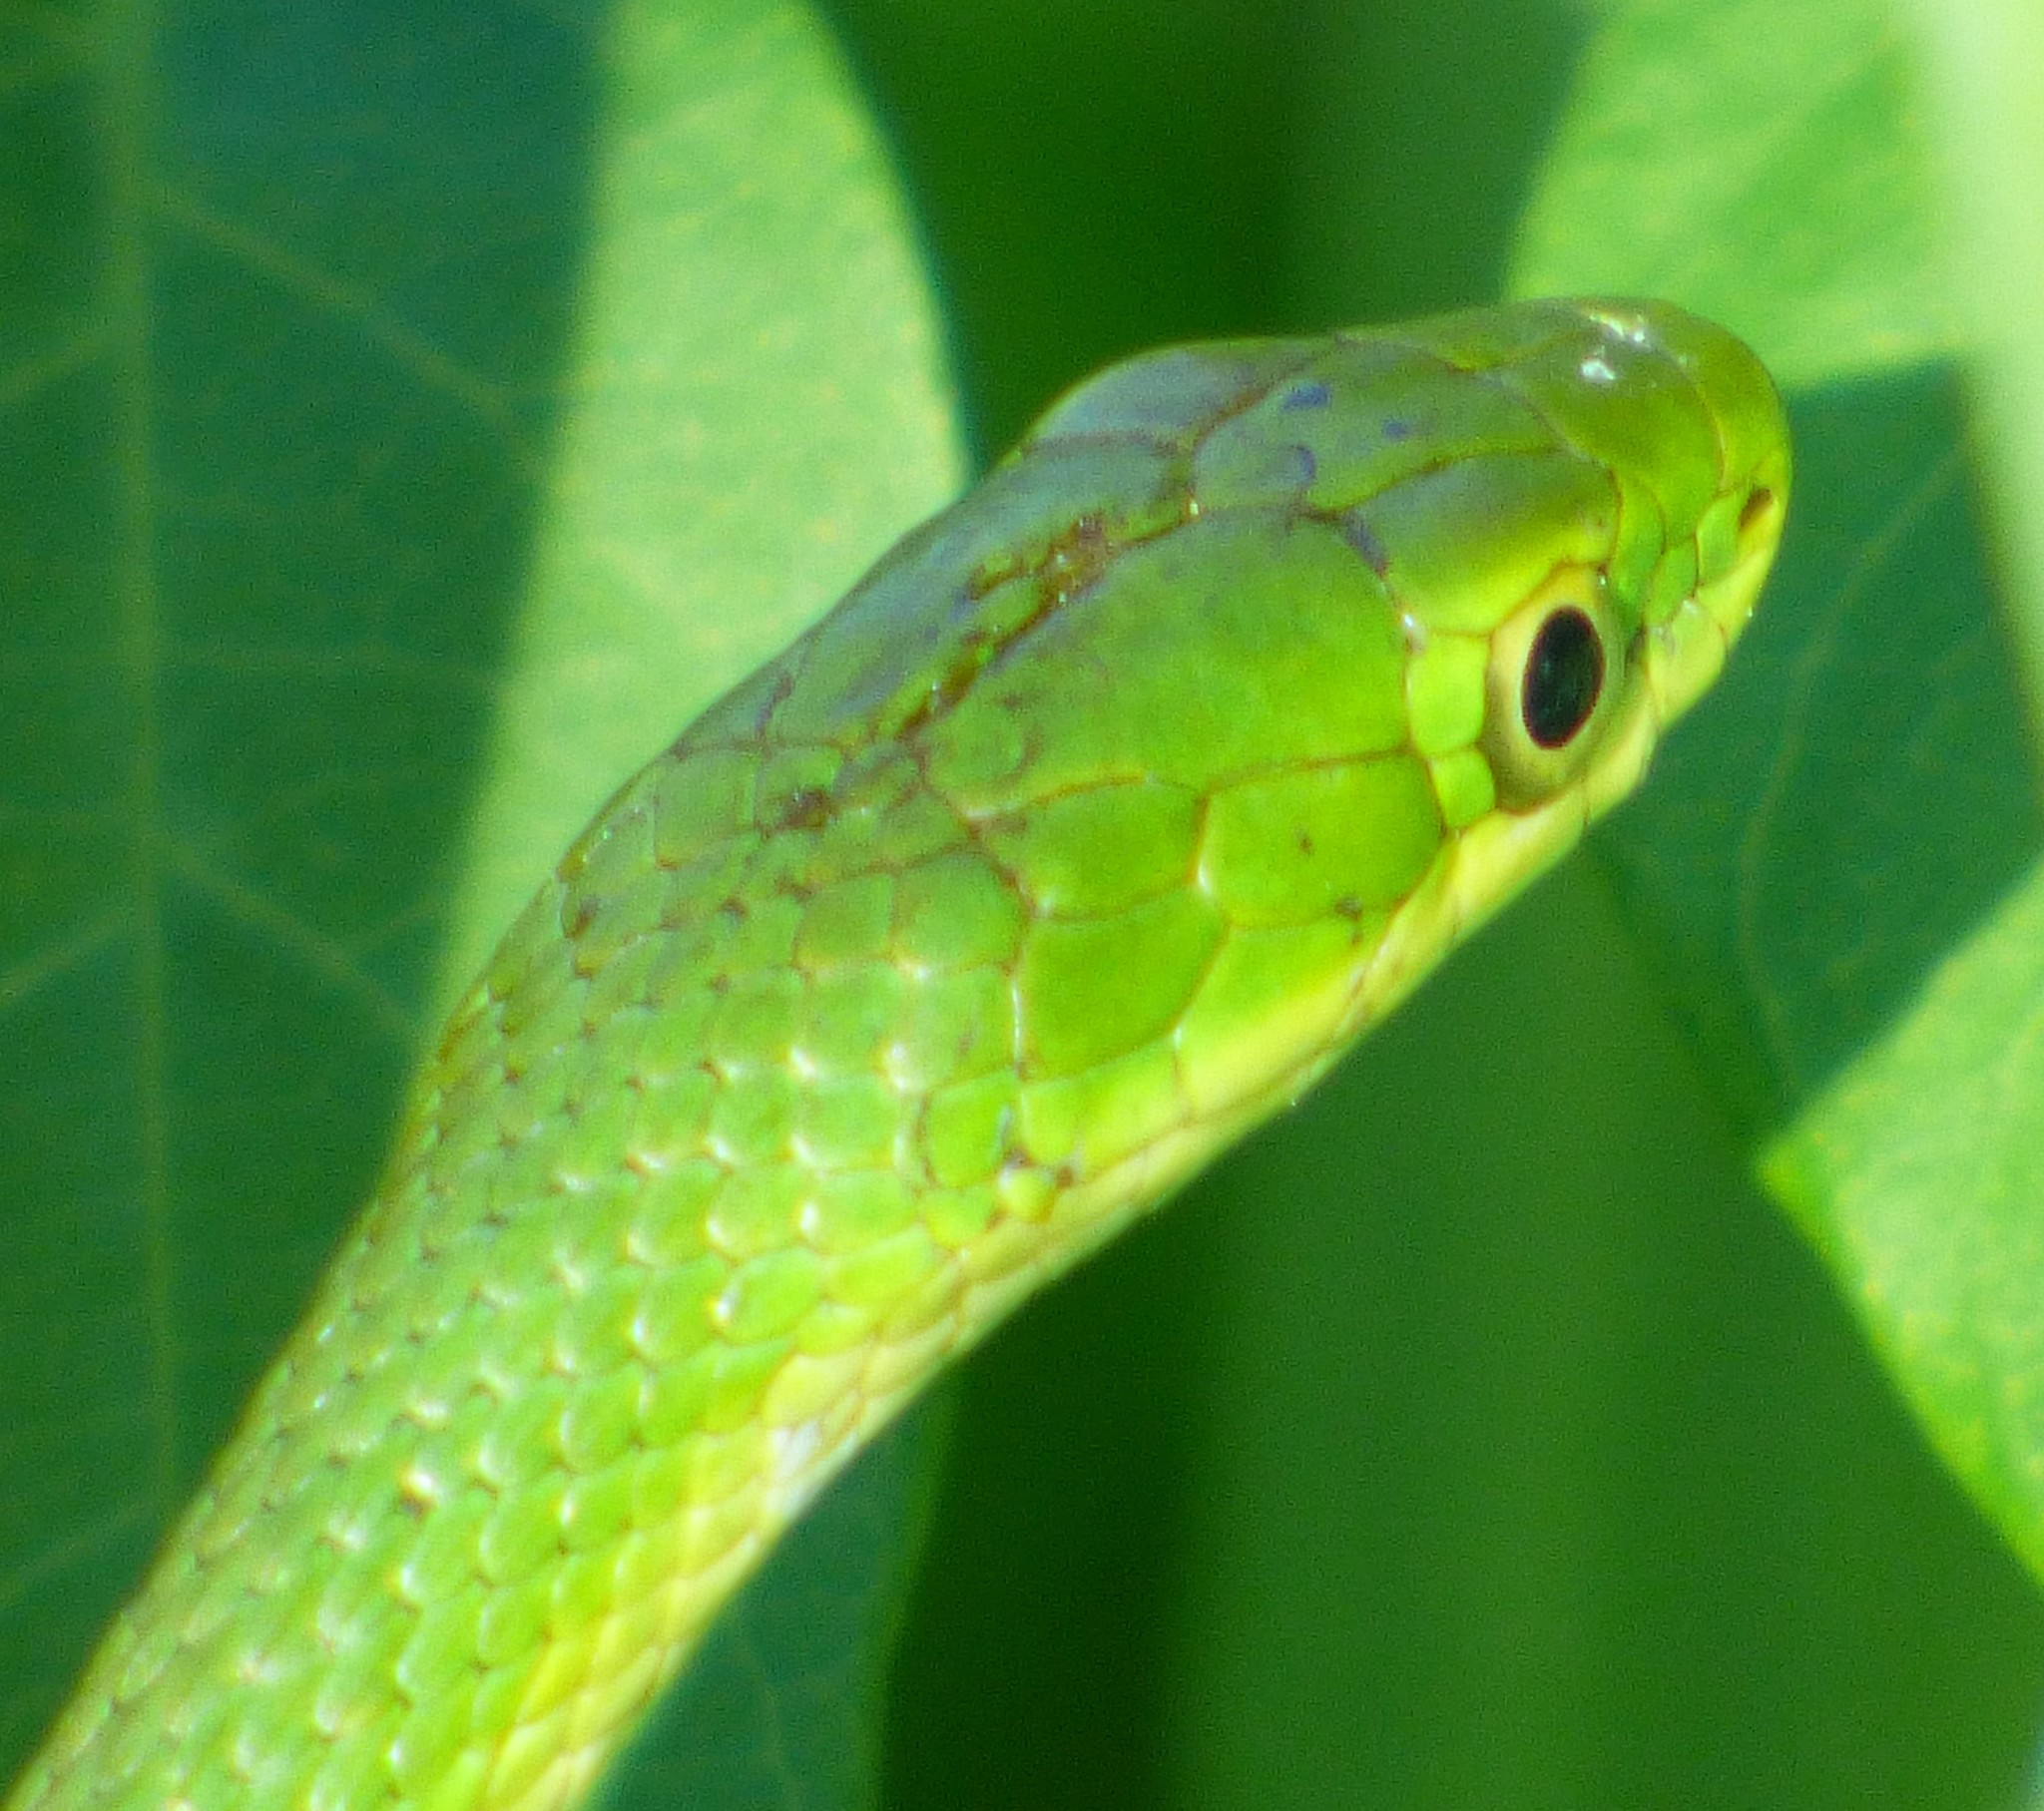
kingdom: Animalia
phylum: Chordata
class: Squamata
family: Colubridae
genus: Opheodrys
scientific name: Opheodrys aestivus
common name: Rough greensnake
